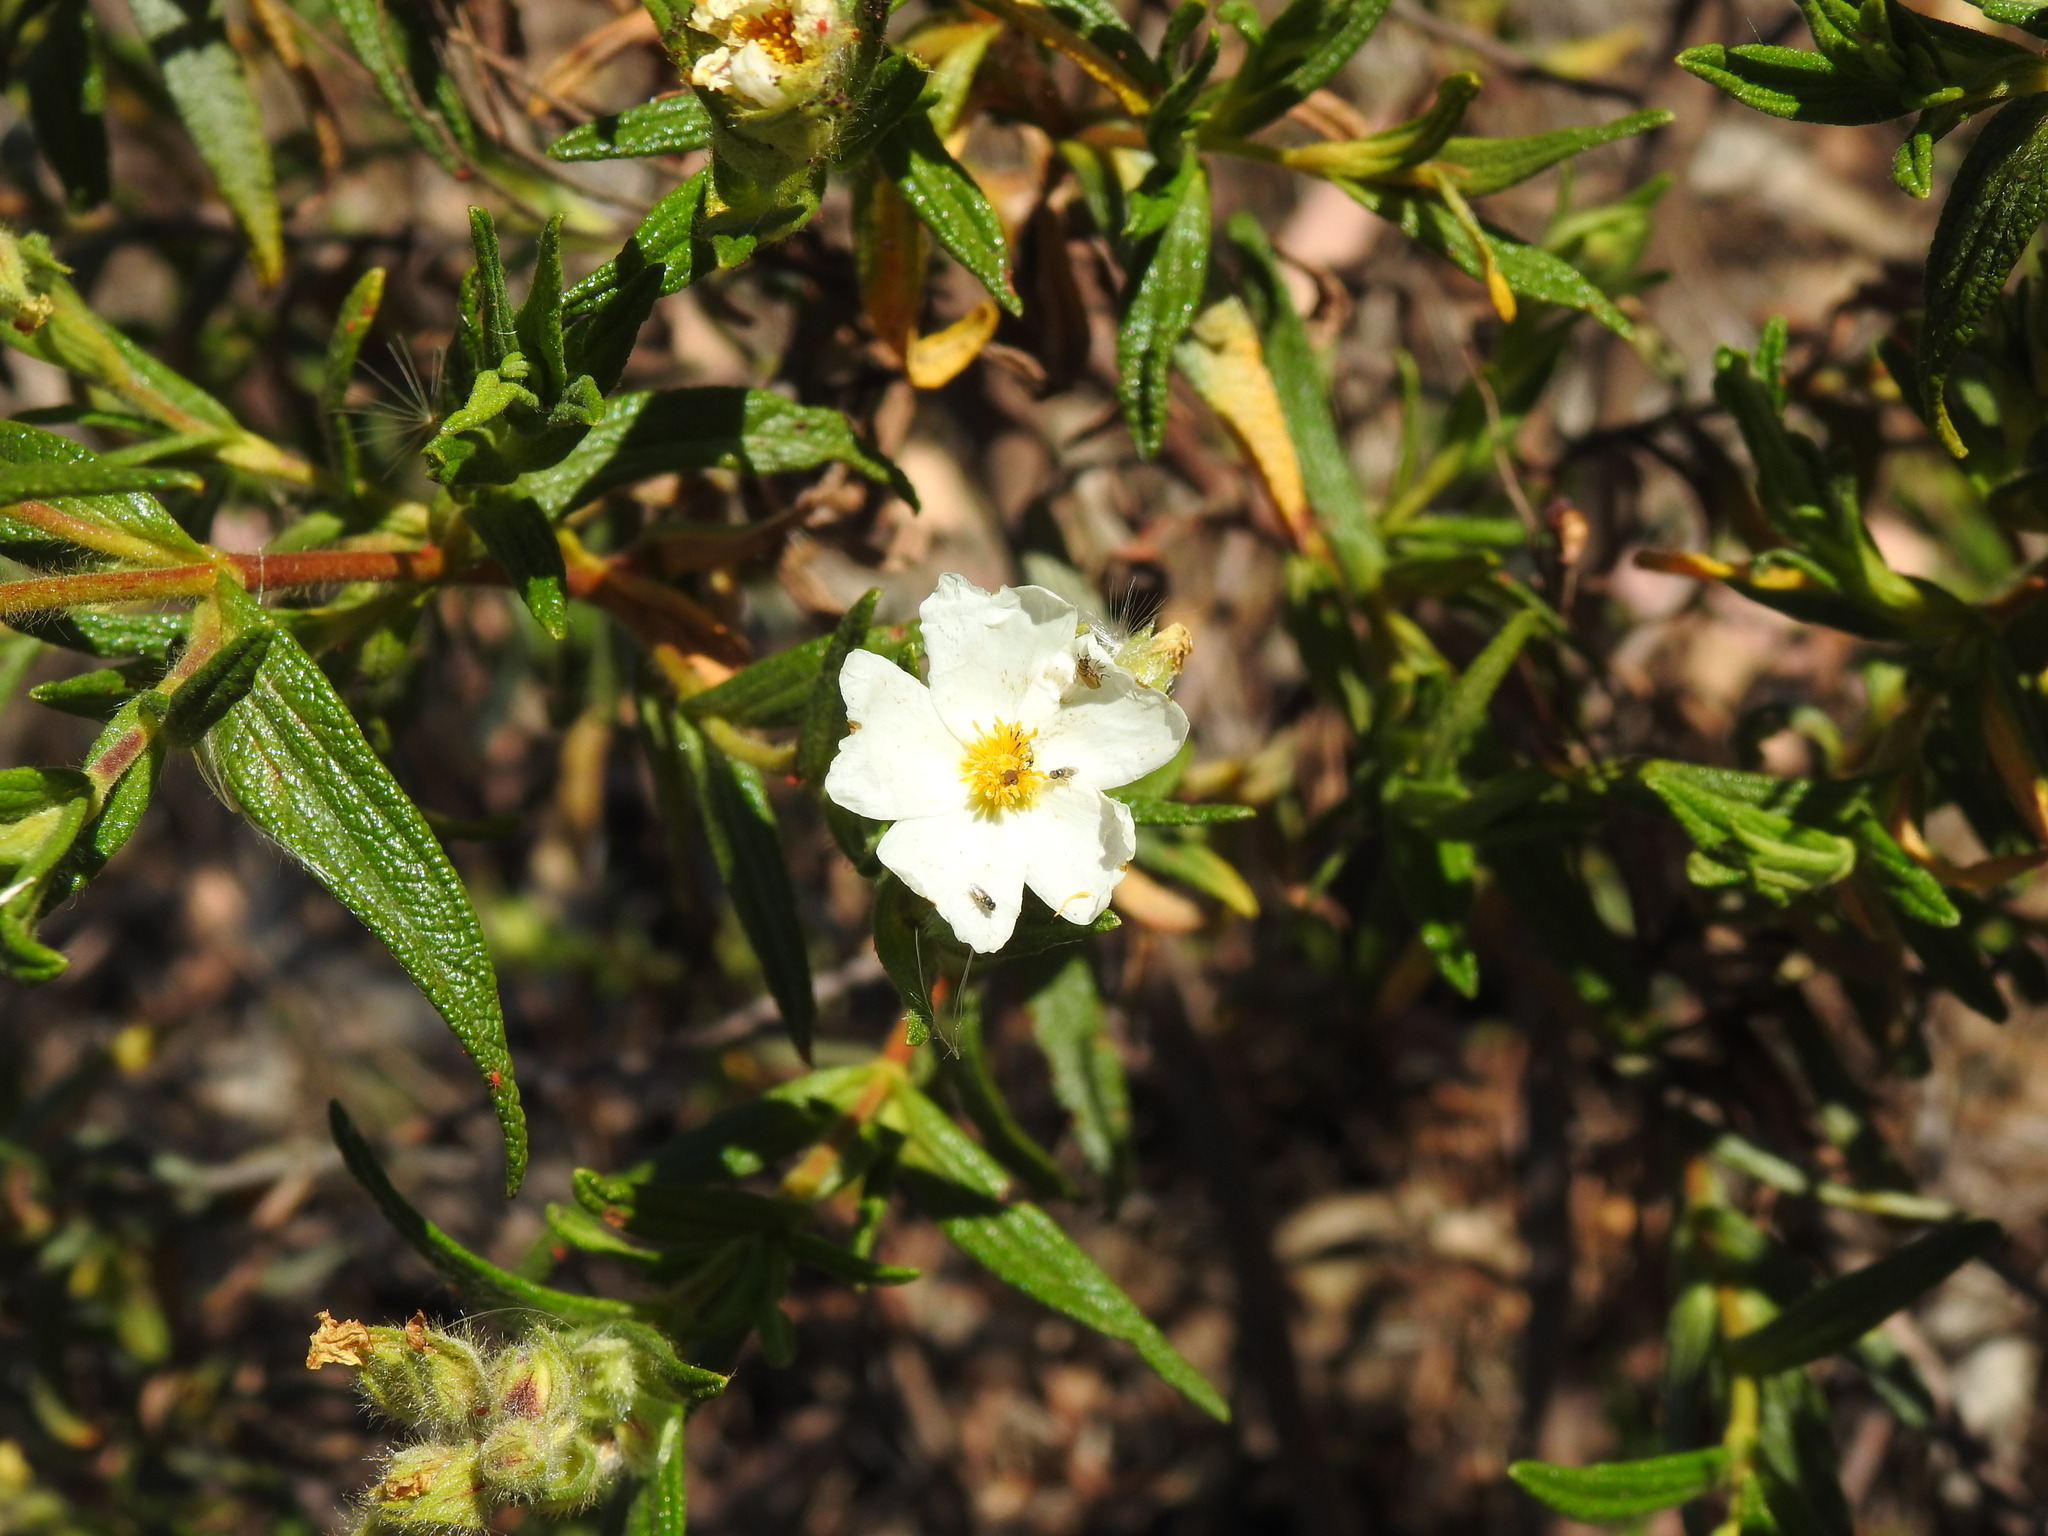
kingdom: Plantae
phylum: Tracheophyta
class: Magnoliopsida
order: Malvales
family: Cistaceae
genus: Cistus
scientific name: Cistus monspeliensis
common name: Montpelier cistus
